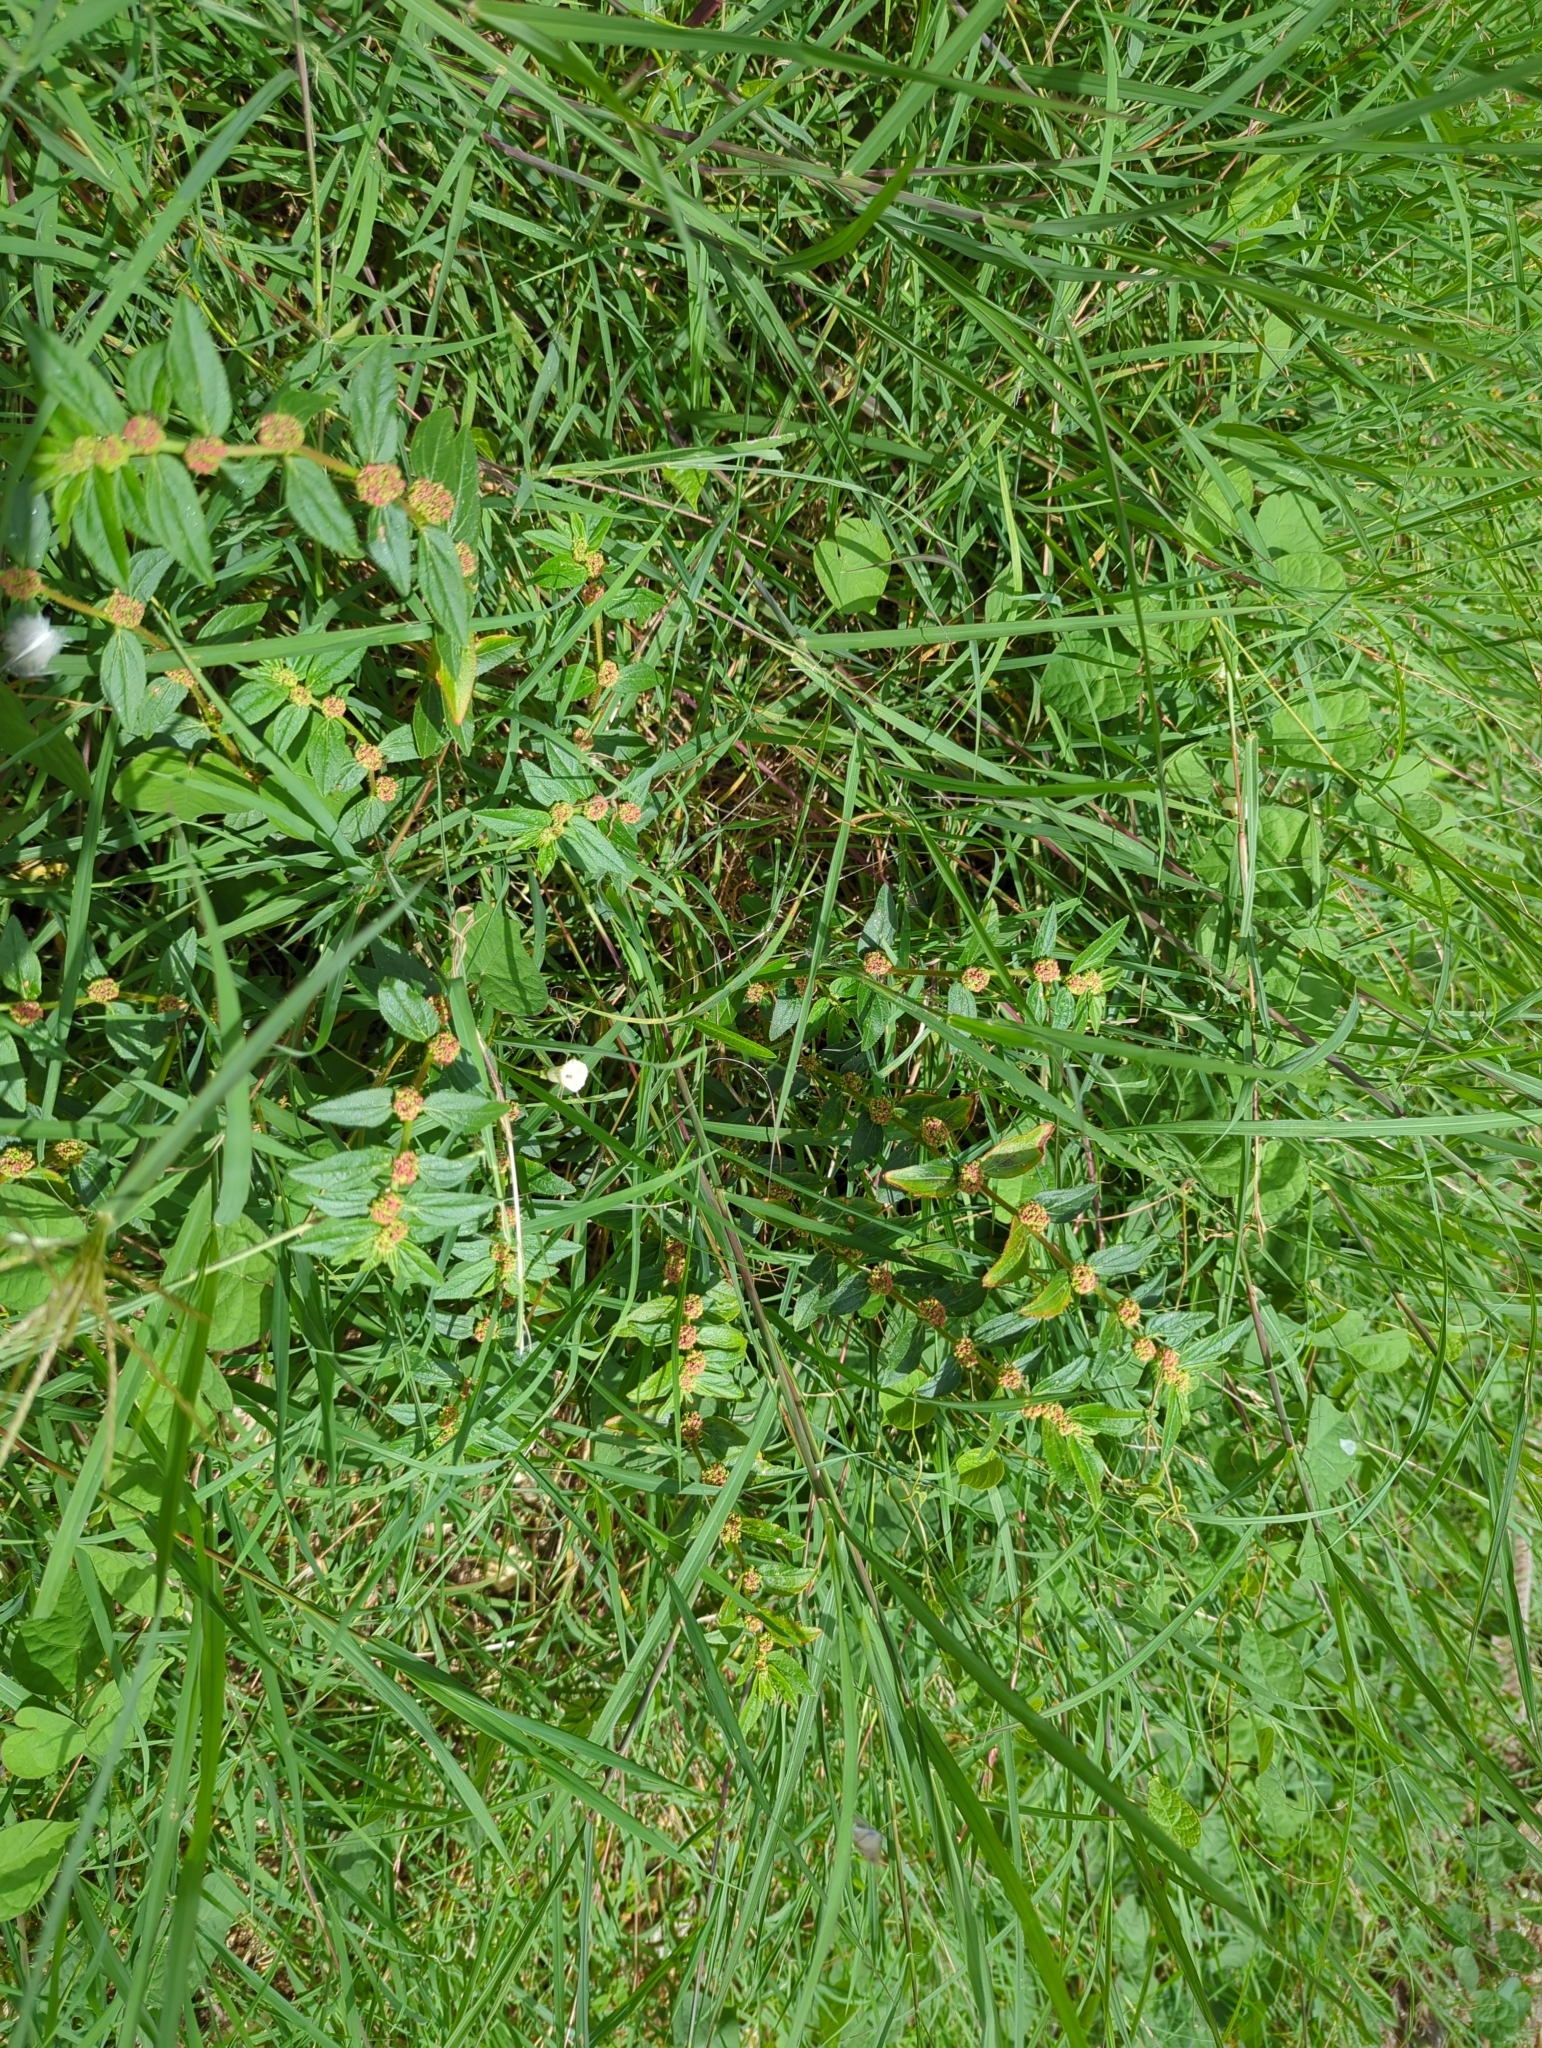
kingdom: Plantae
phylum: Tracheophyta
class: Magnoliopsida
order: Malpighiales
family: Euphorbiaceae
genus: Euphorbia
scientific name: Euphorbia hirta
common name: Pillpod sandmat
